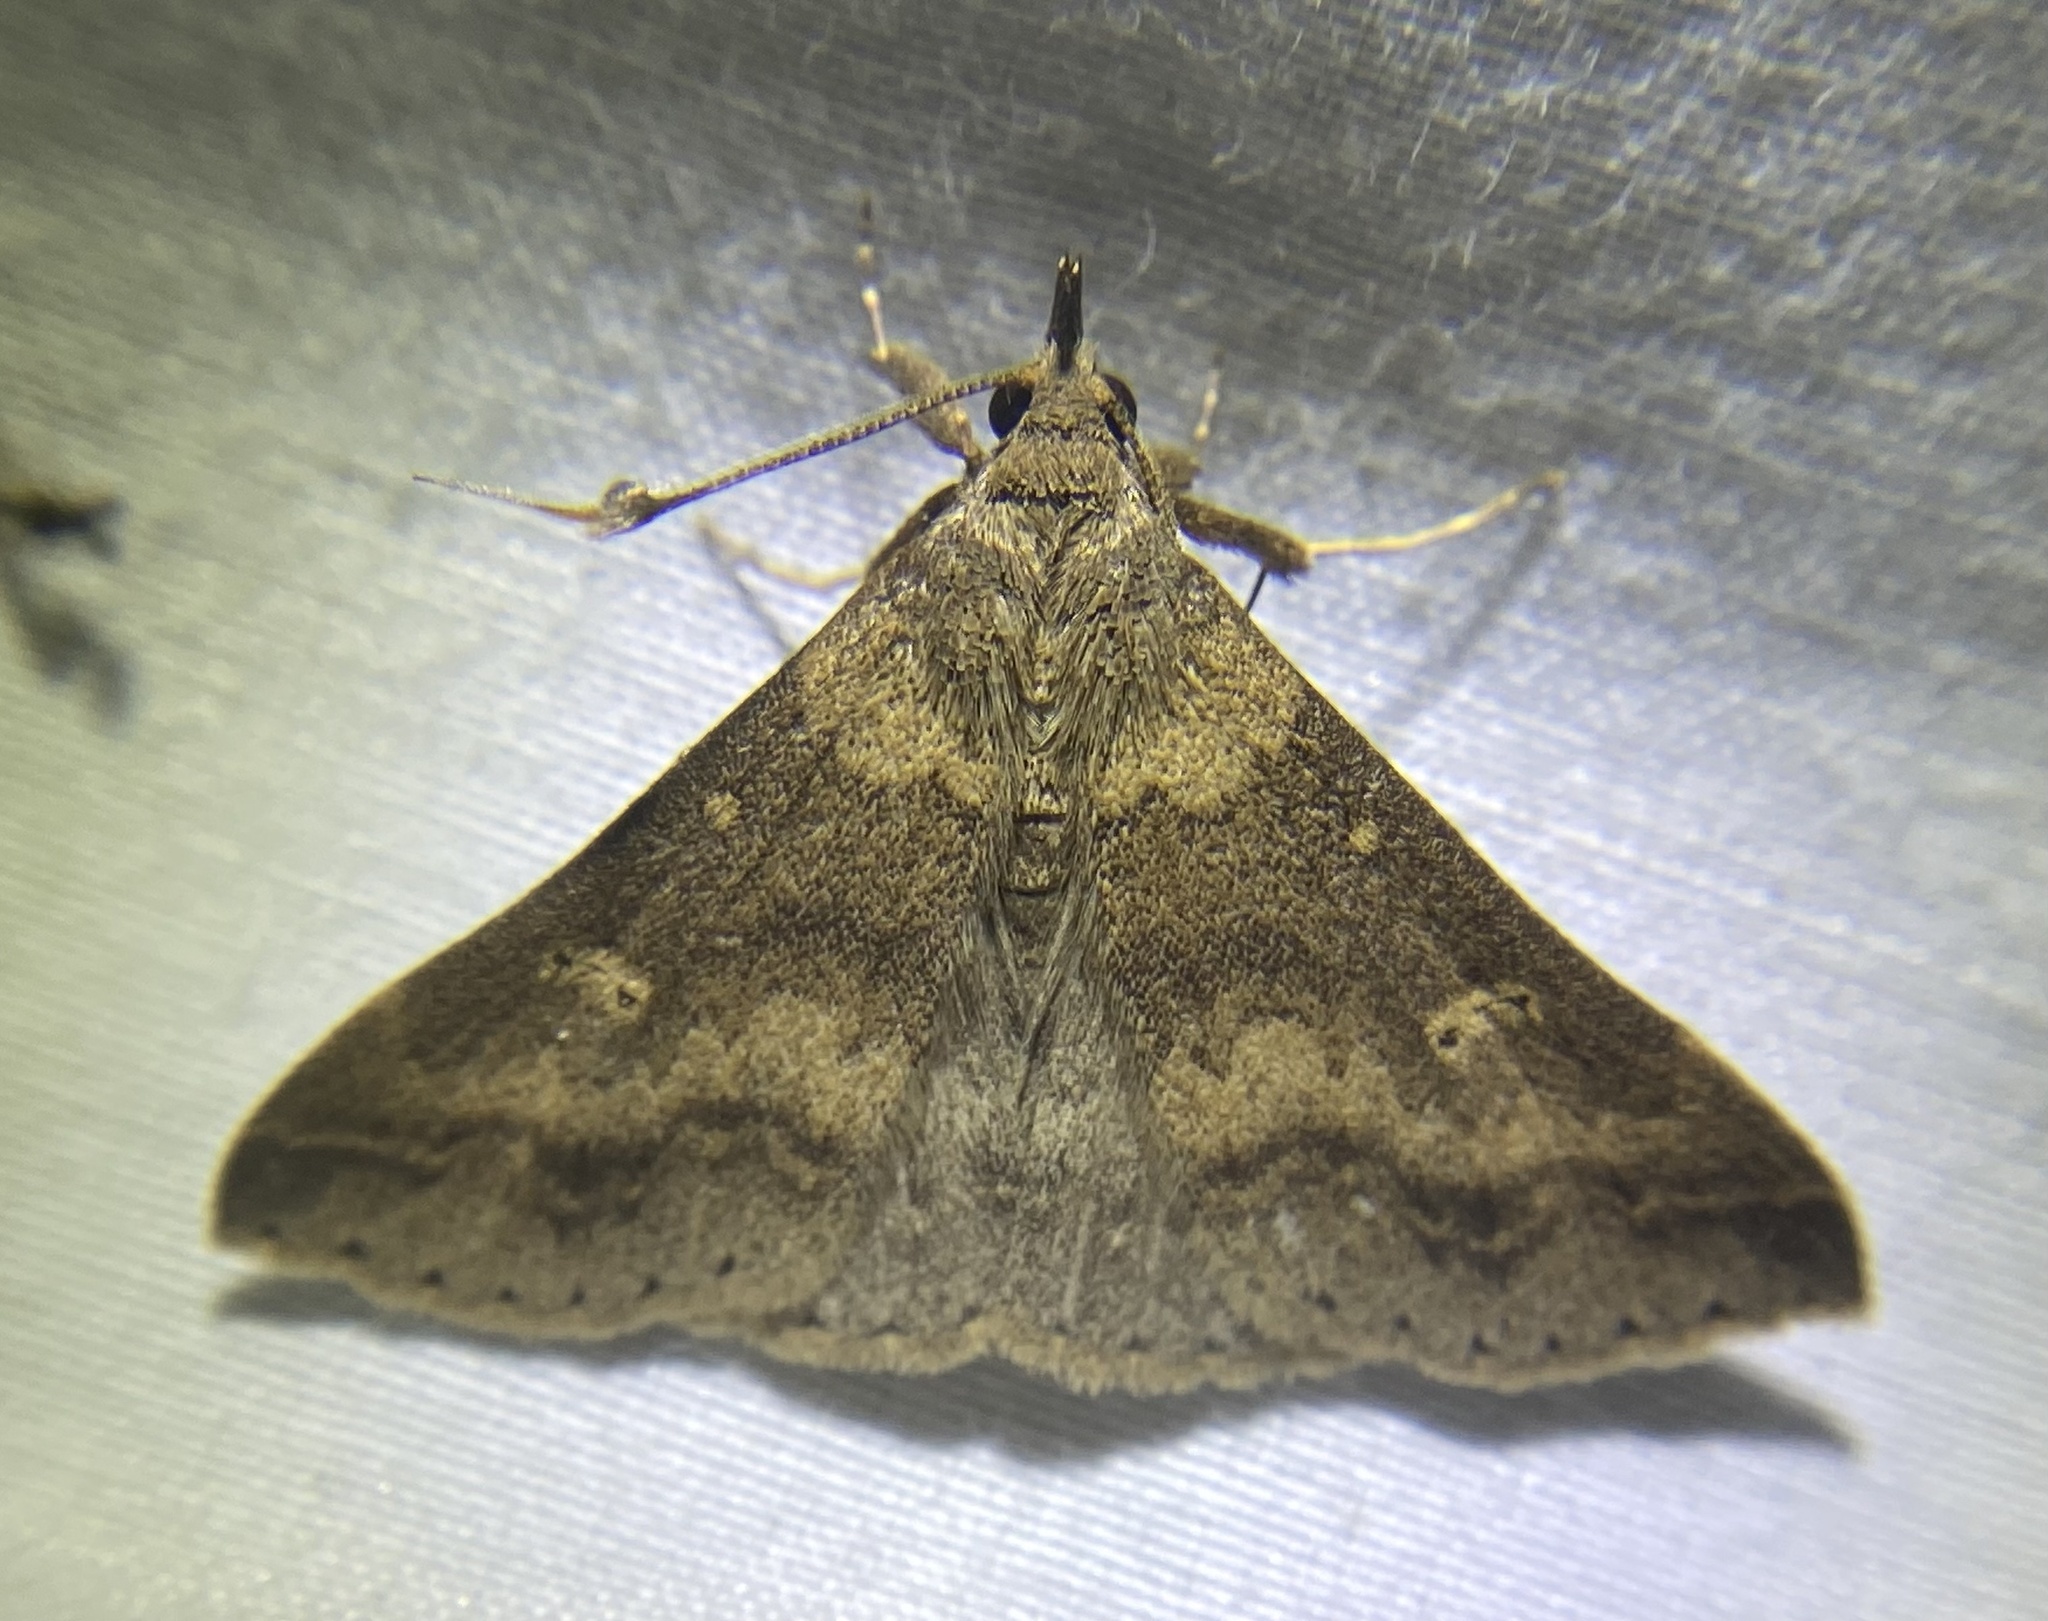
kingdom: Animalia
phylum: Arthropoda
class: Insecta
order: Lepidoptera
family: Erebidae
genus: Renia
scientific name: Renia discoloralis
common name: Discolored renia moth
